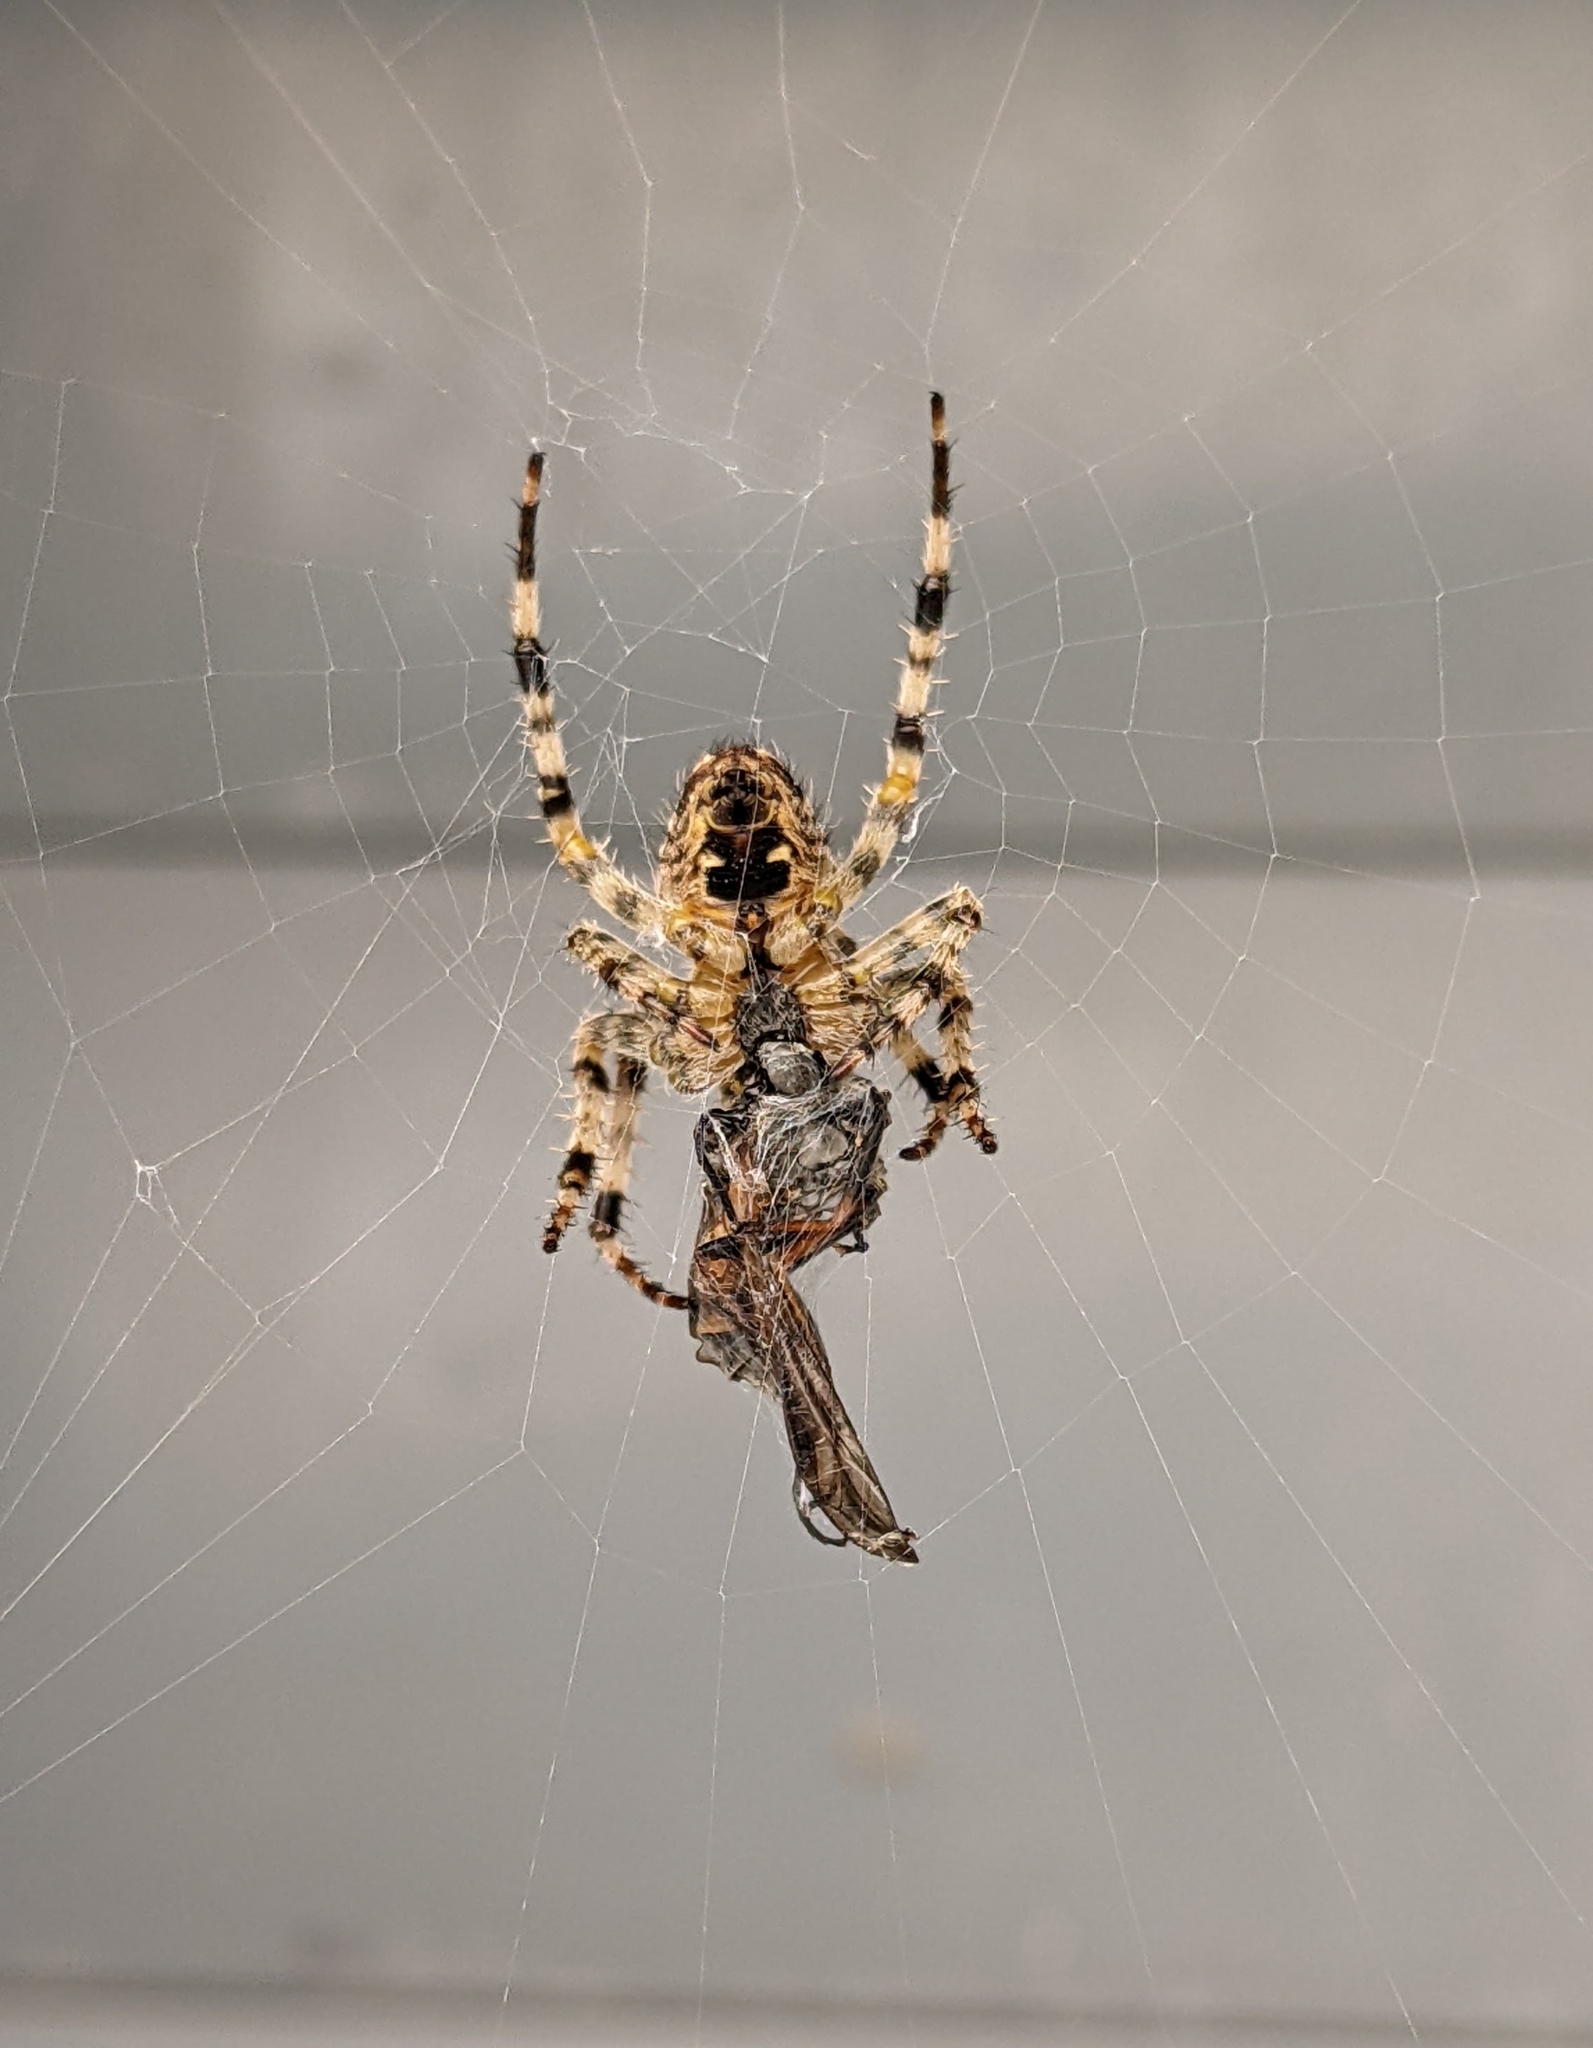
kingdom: Animalia
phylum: Arthropoda
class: Arachnida
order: Araneae
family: Araneidae
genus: Araneus
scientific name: Araneus diadematus
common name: Cross orbweaver
